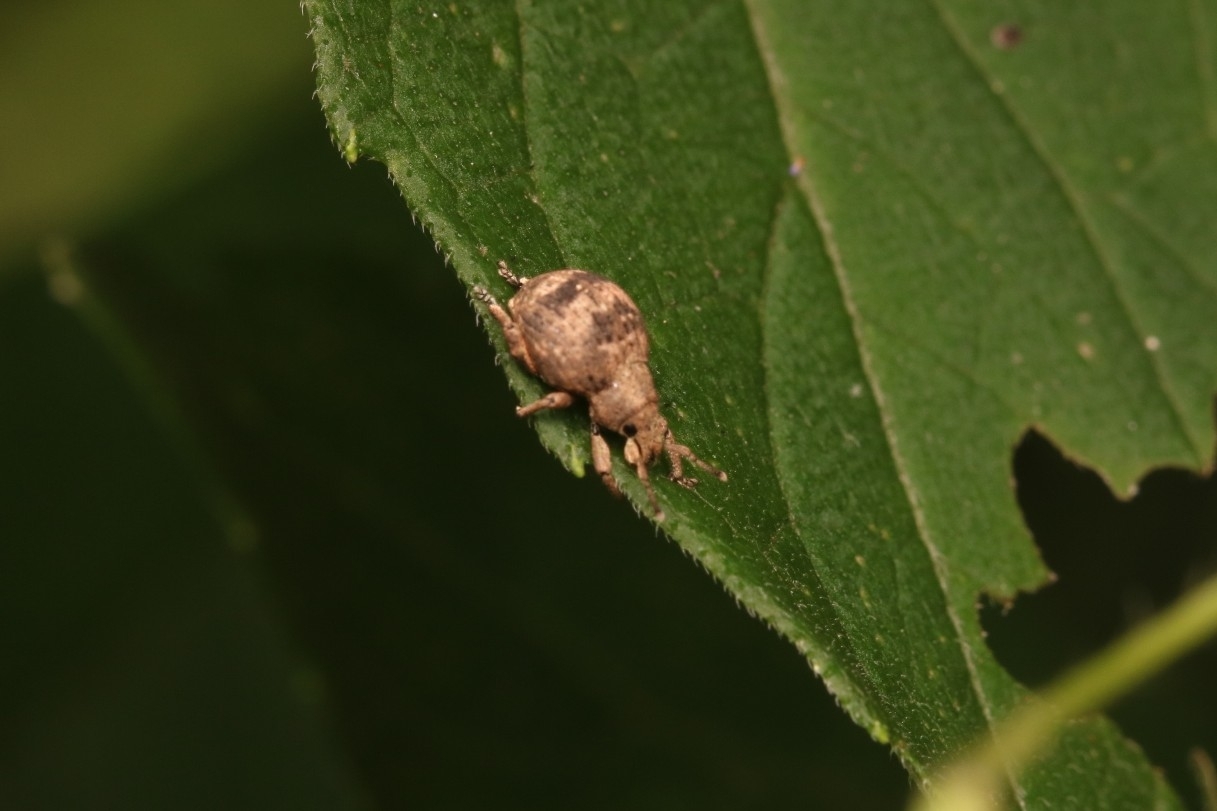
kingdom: Animalia
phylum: Arthropoda
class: Insecta
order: Coleoptera
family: Curculionidae
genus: Pseudocneorhinus
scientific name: Pseudocneorhinus bifasciatus
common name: Two-banded japanese weevil
